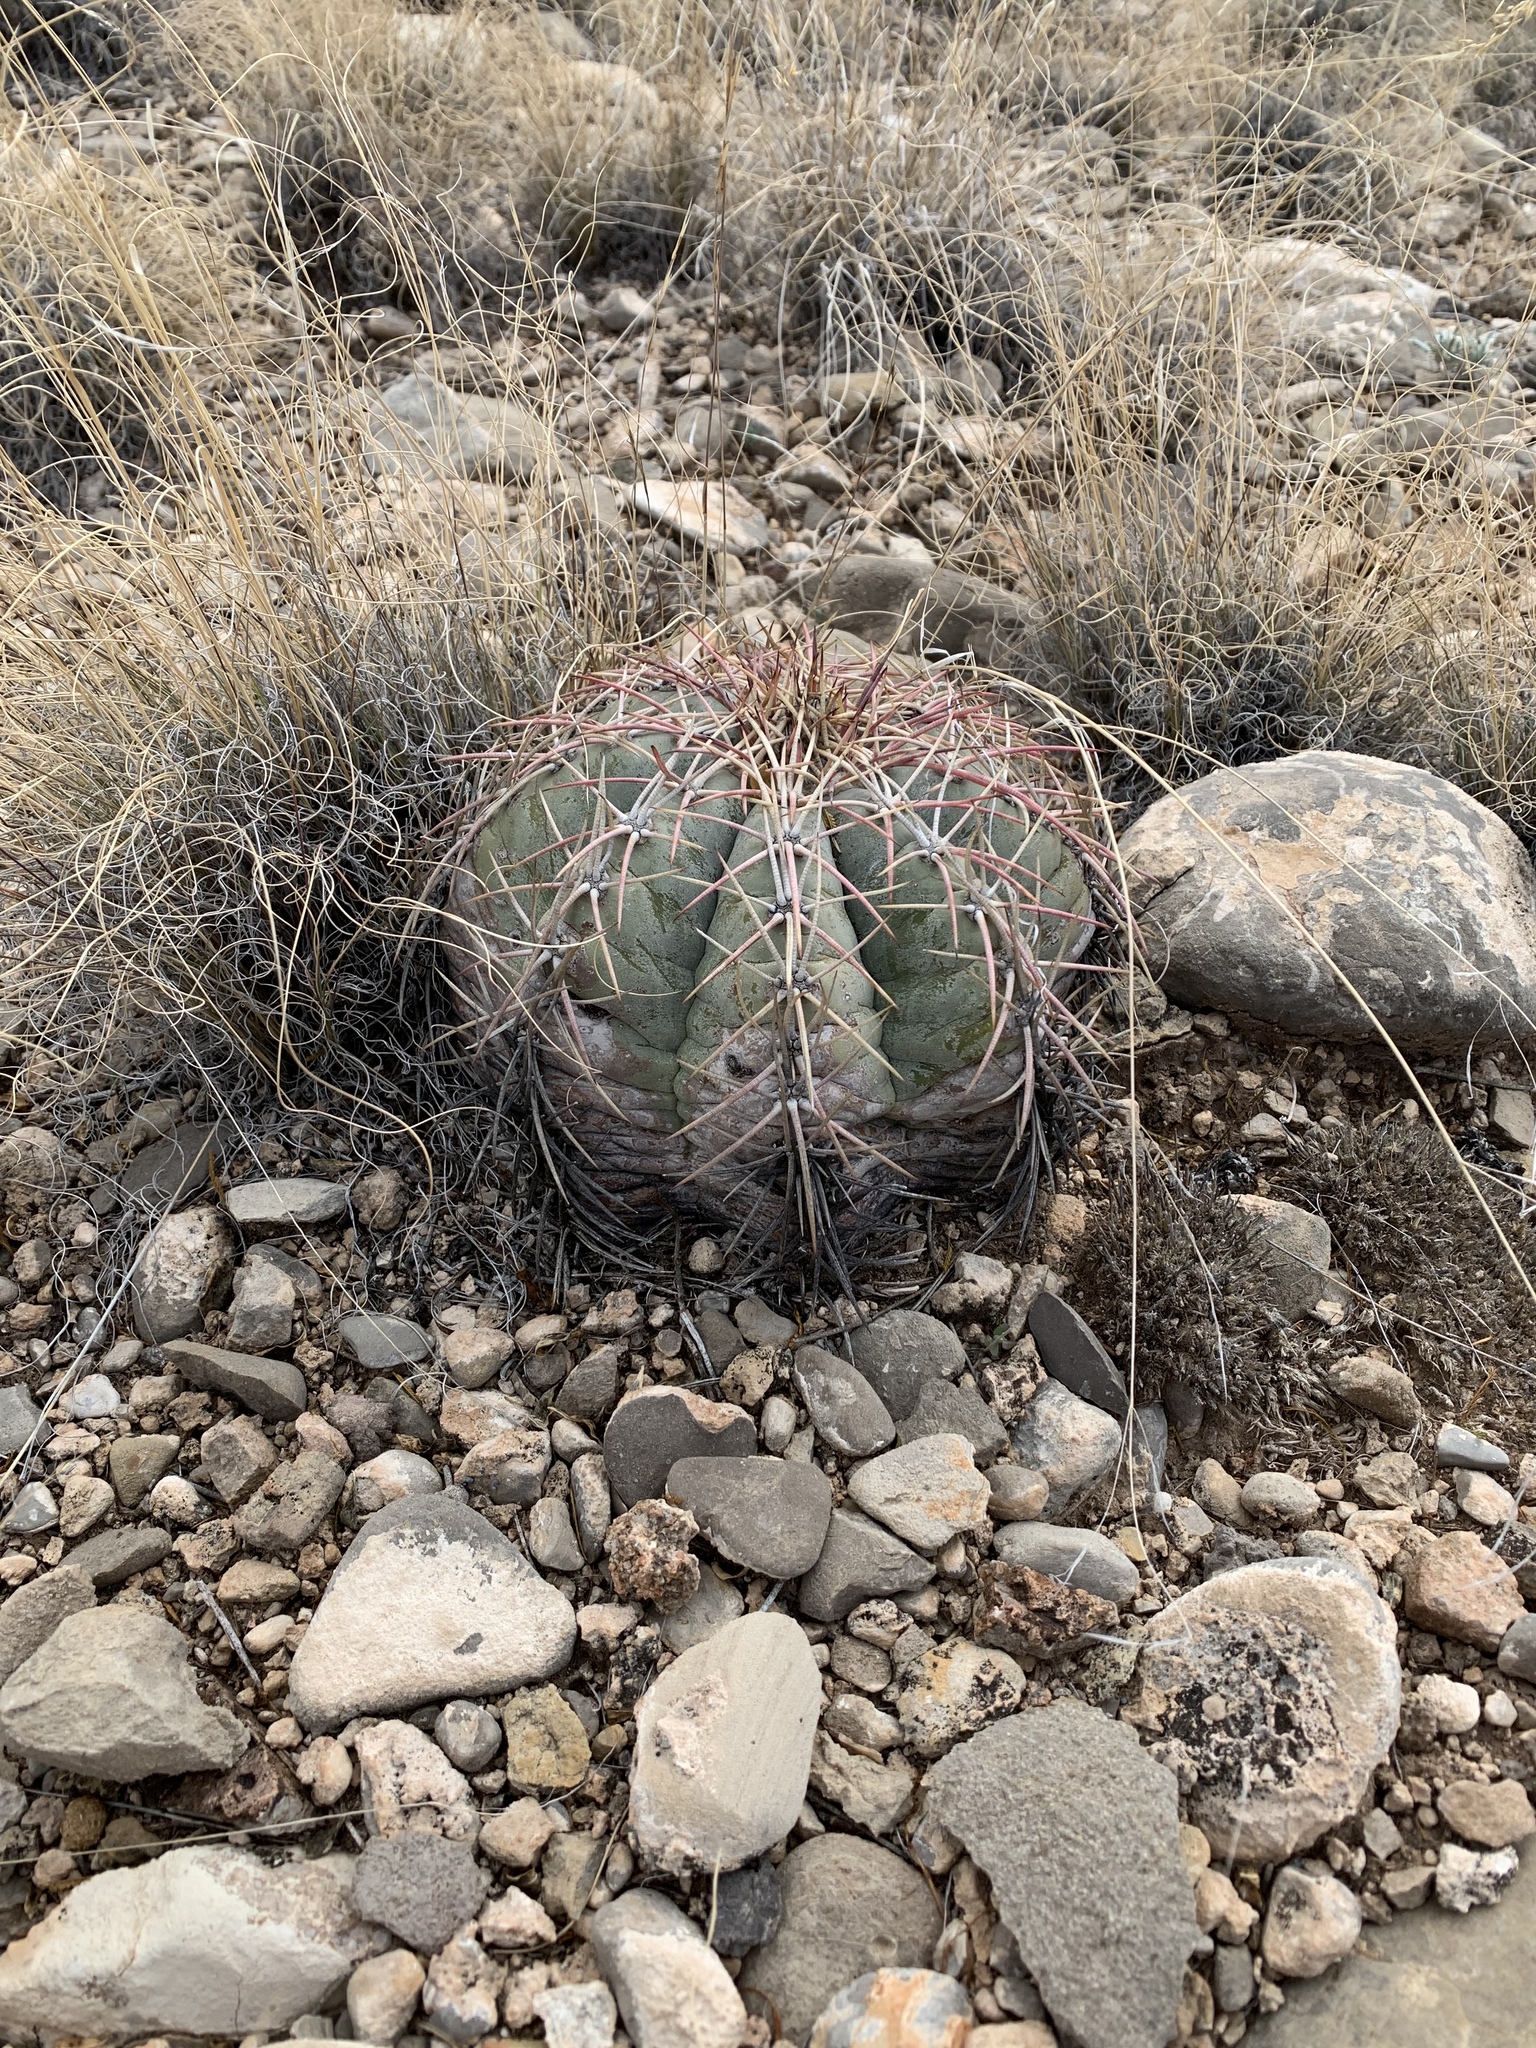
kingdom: Plantae
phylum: Tracheophyta
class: Magnoliopsida
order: Caryophyllales
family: Cactaceae
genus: Echinocactus
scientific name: Echinocactus horizonthalonius
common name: Devilshead
